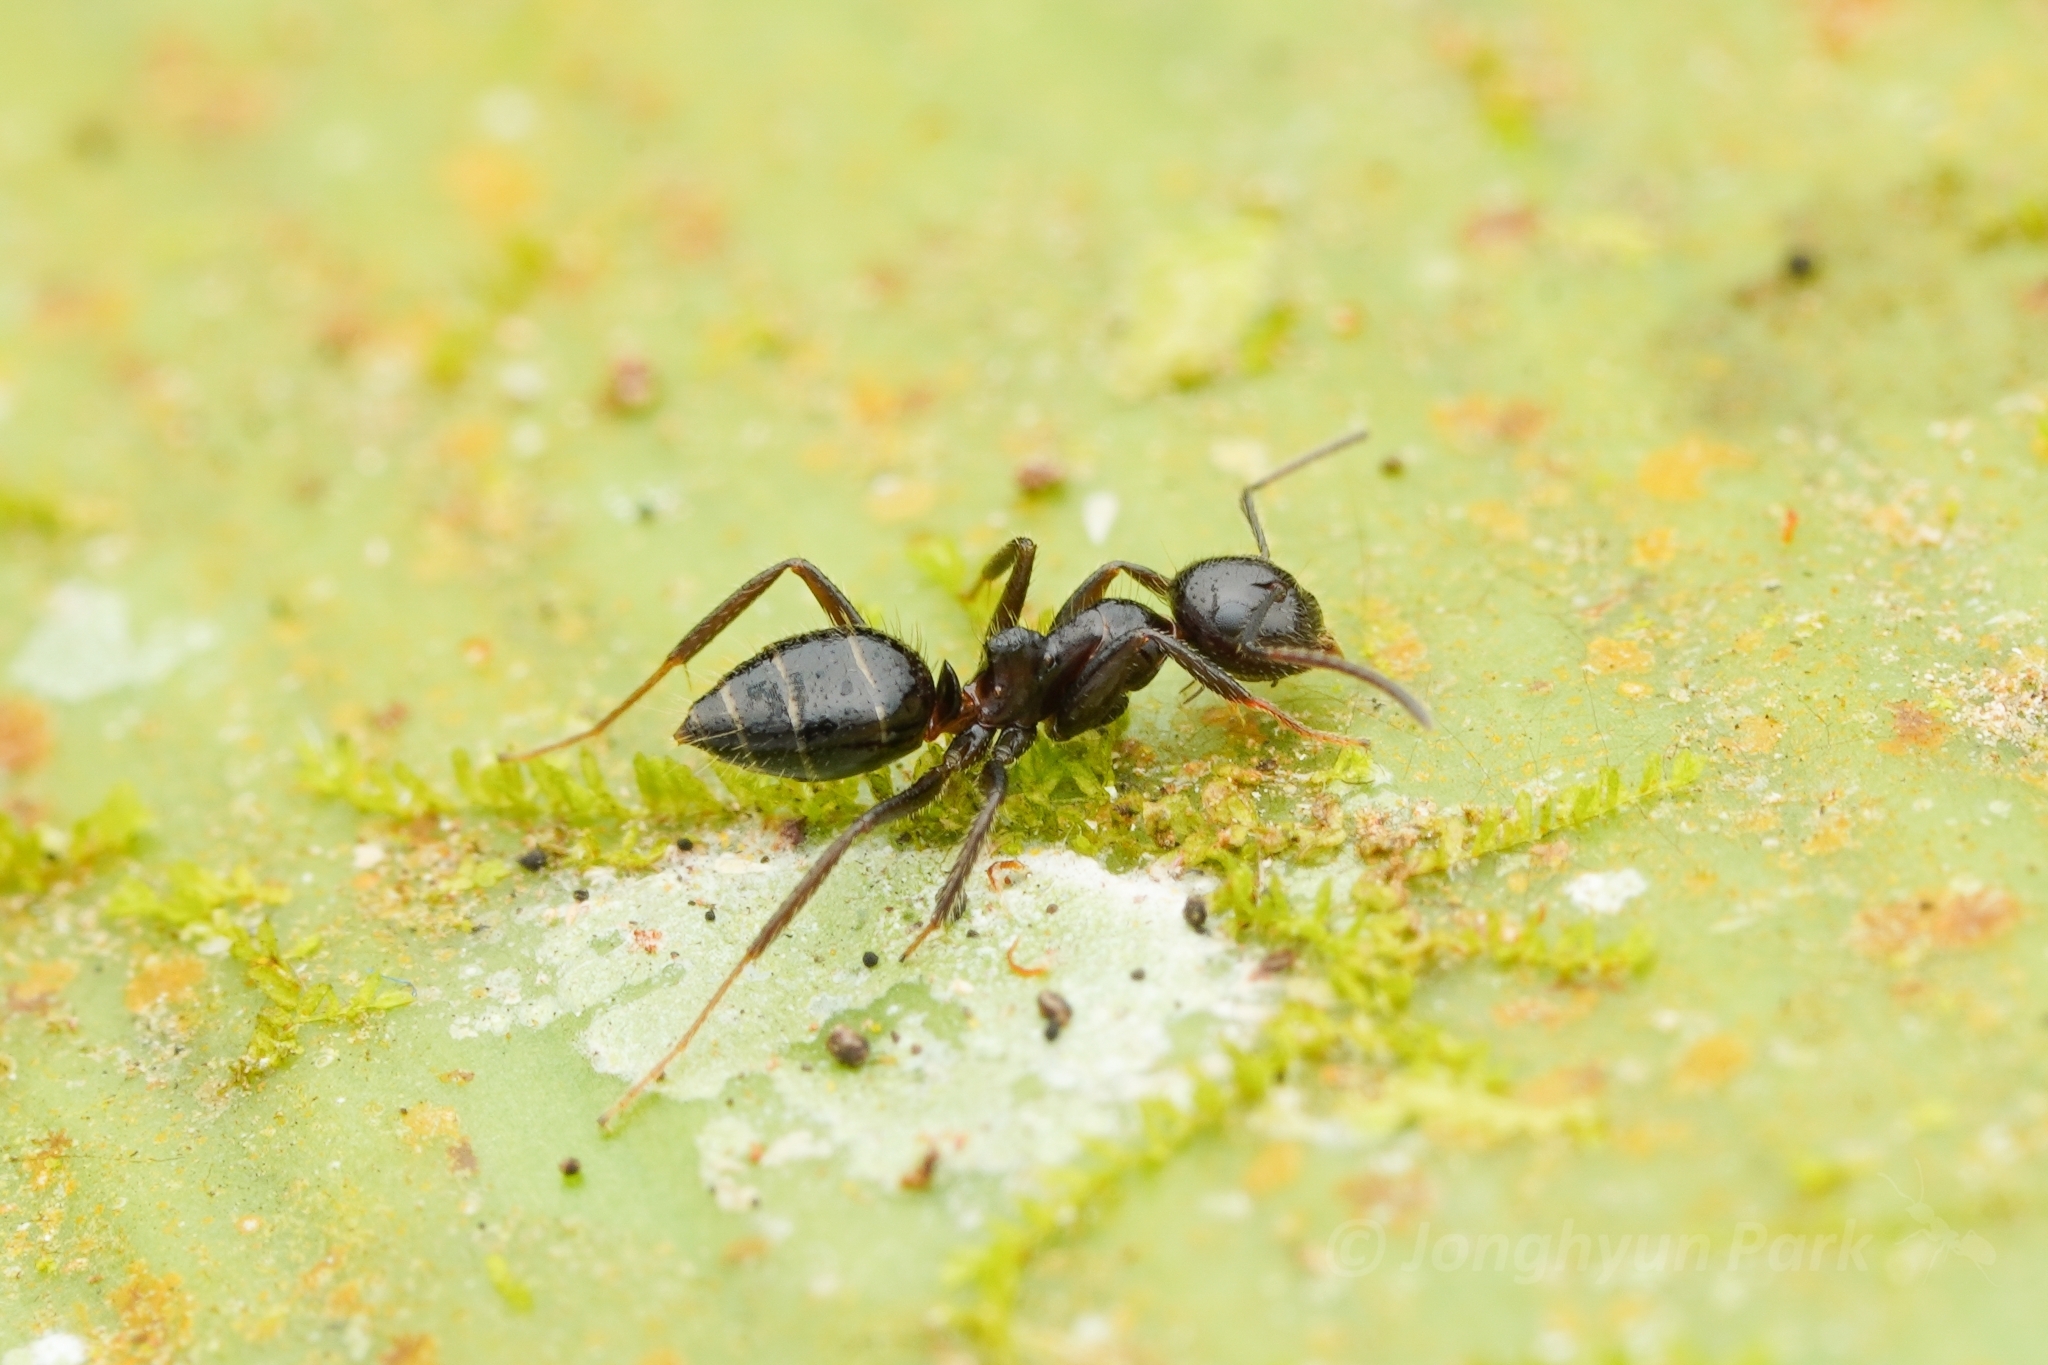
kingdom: Animalia
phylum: Arthropoda
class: Insecta
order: Hymenoptera
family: Formicidae
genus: Camponotus
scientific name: Camponotus vitreus
